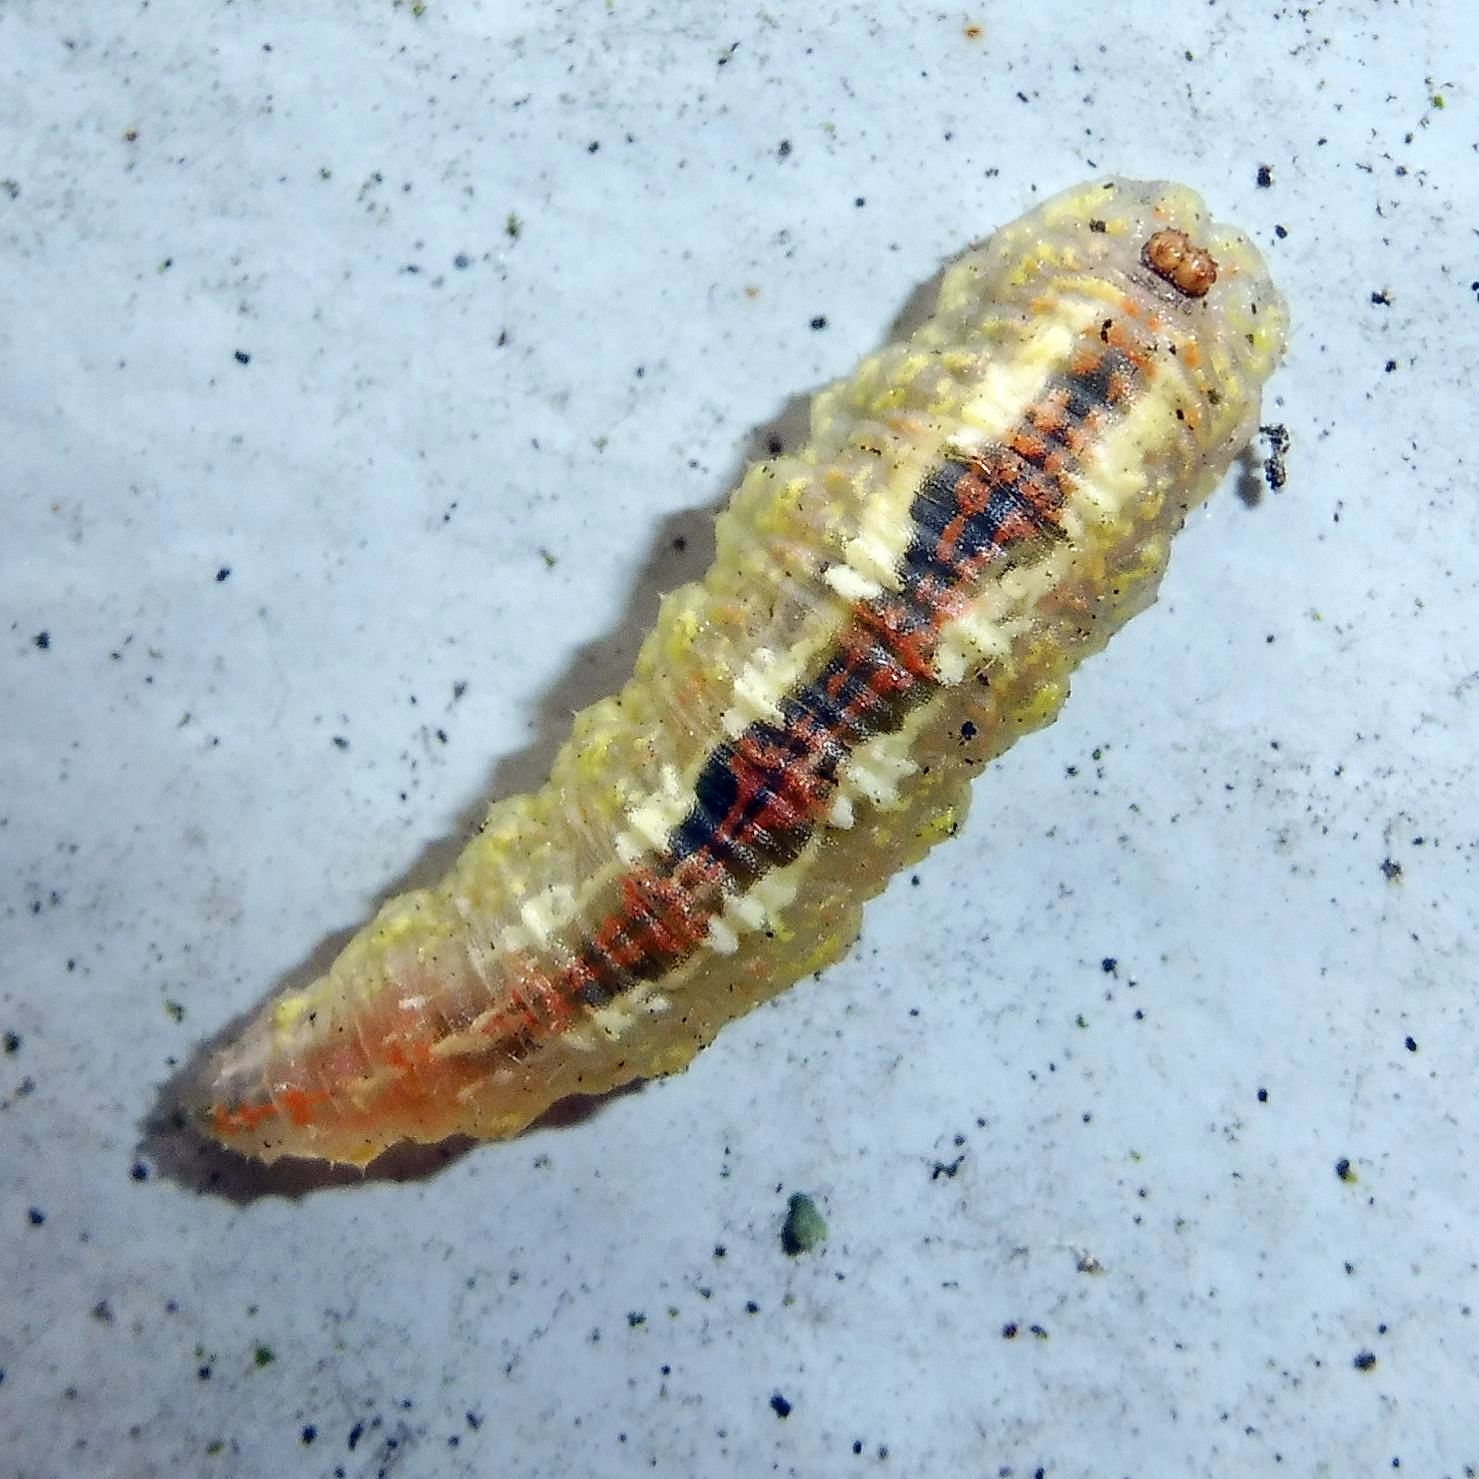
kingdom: Animalia
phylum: Arthropoda
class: Insecta
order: Diptera
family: Syrphidae
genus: Syrphus
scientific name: Syrphus
